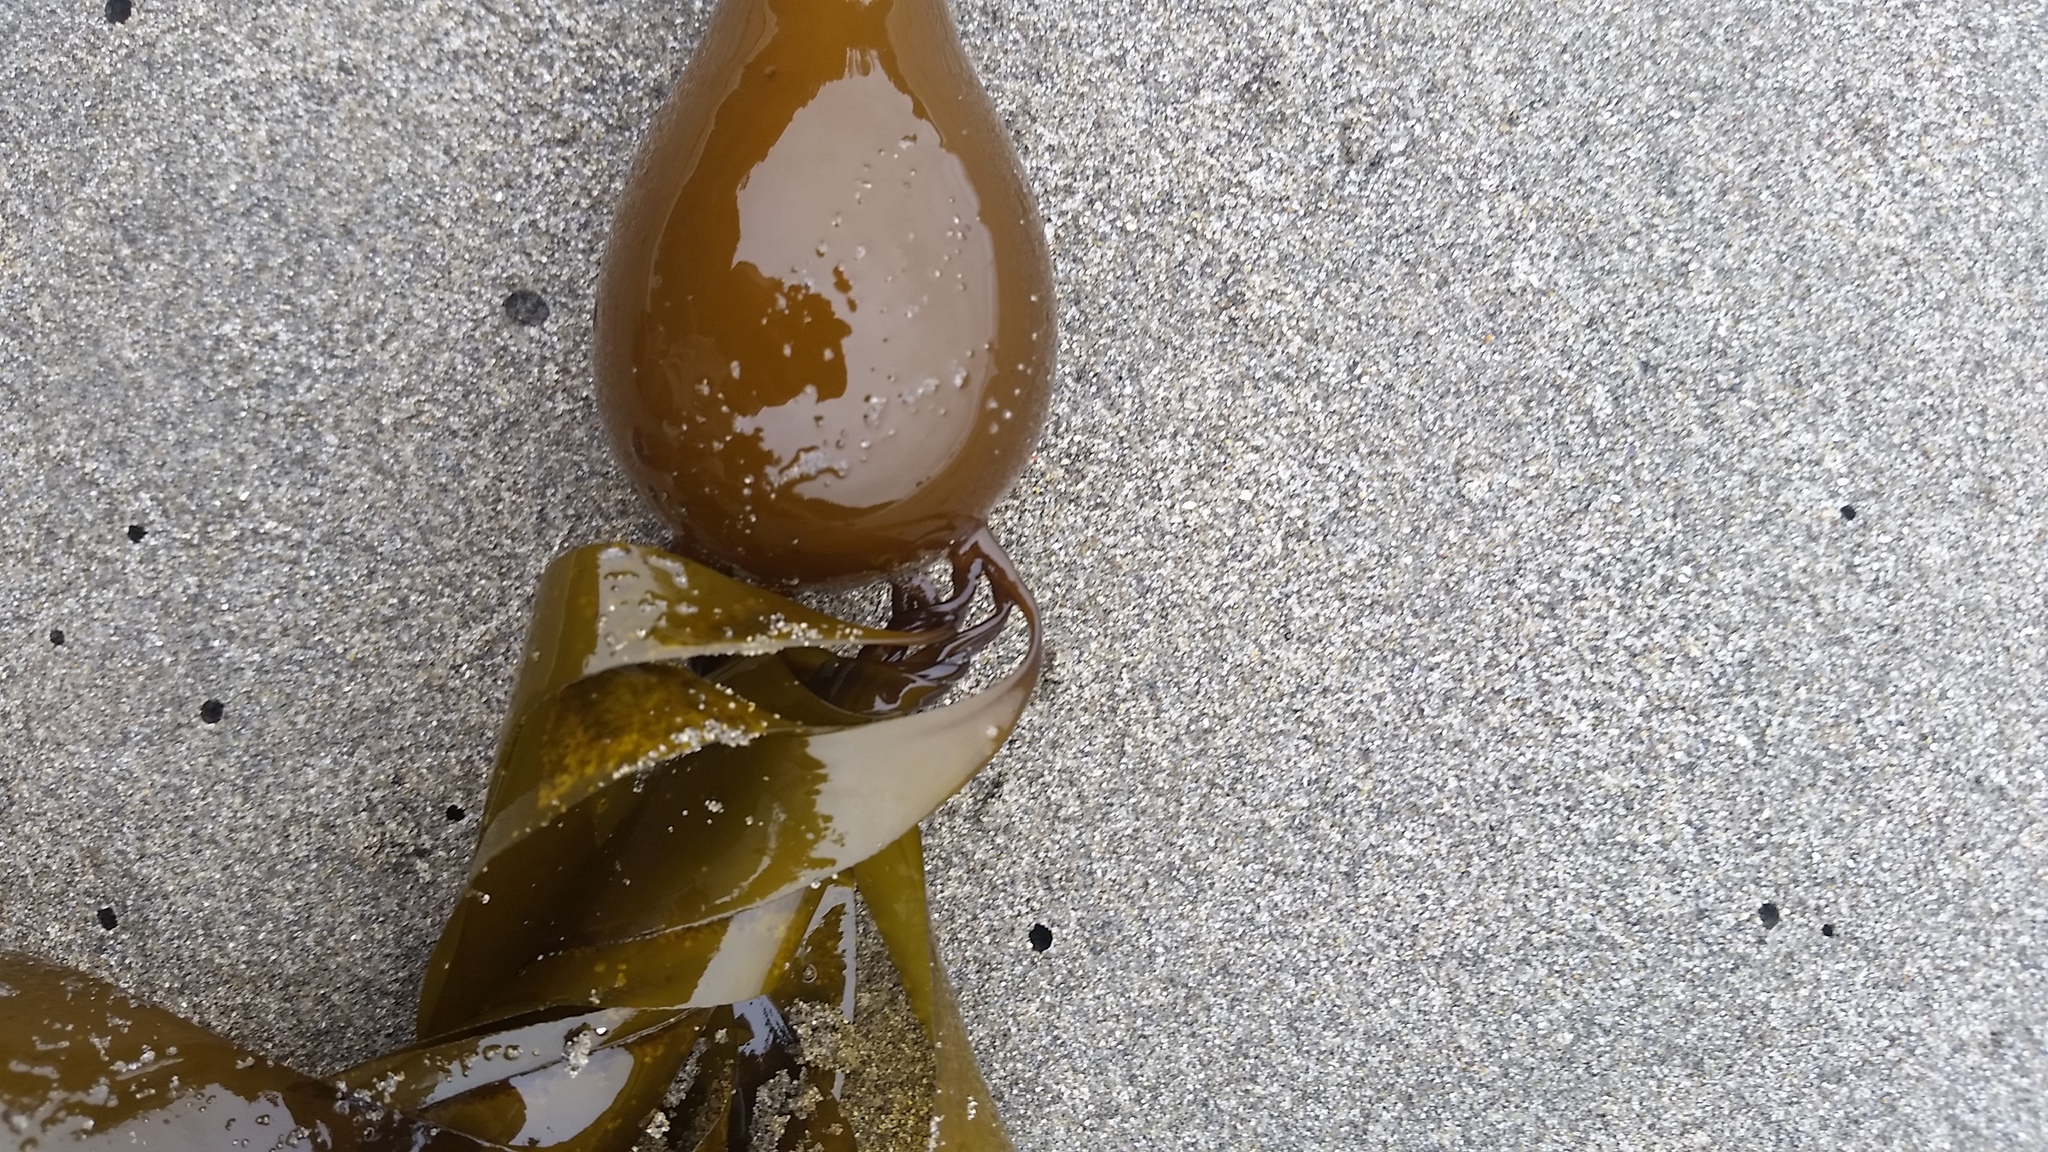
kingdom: Chromista
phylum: Ochrophyta
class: Phaeophyceae
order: Laminariales
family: Laminariaceae
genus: Nereocystis
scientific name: Nereocystis luetkeana
